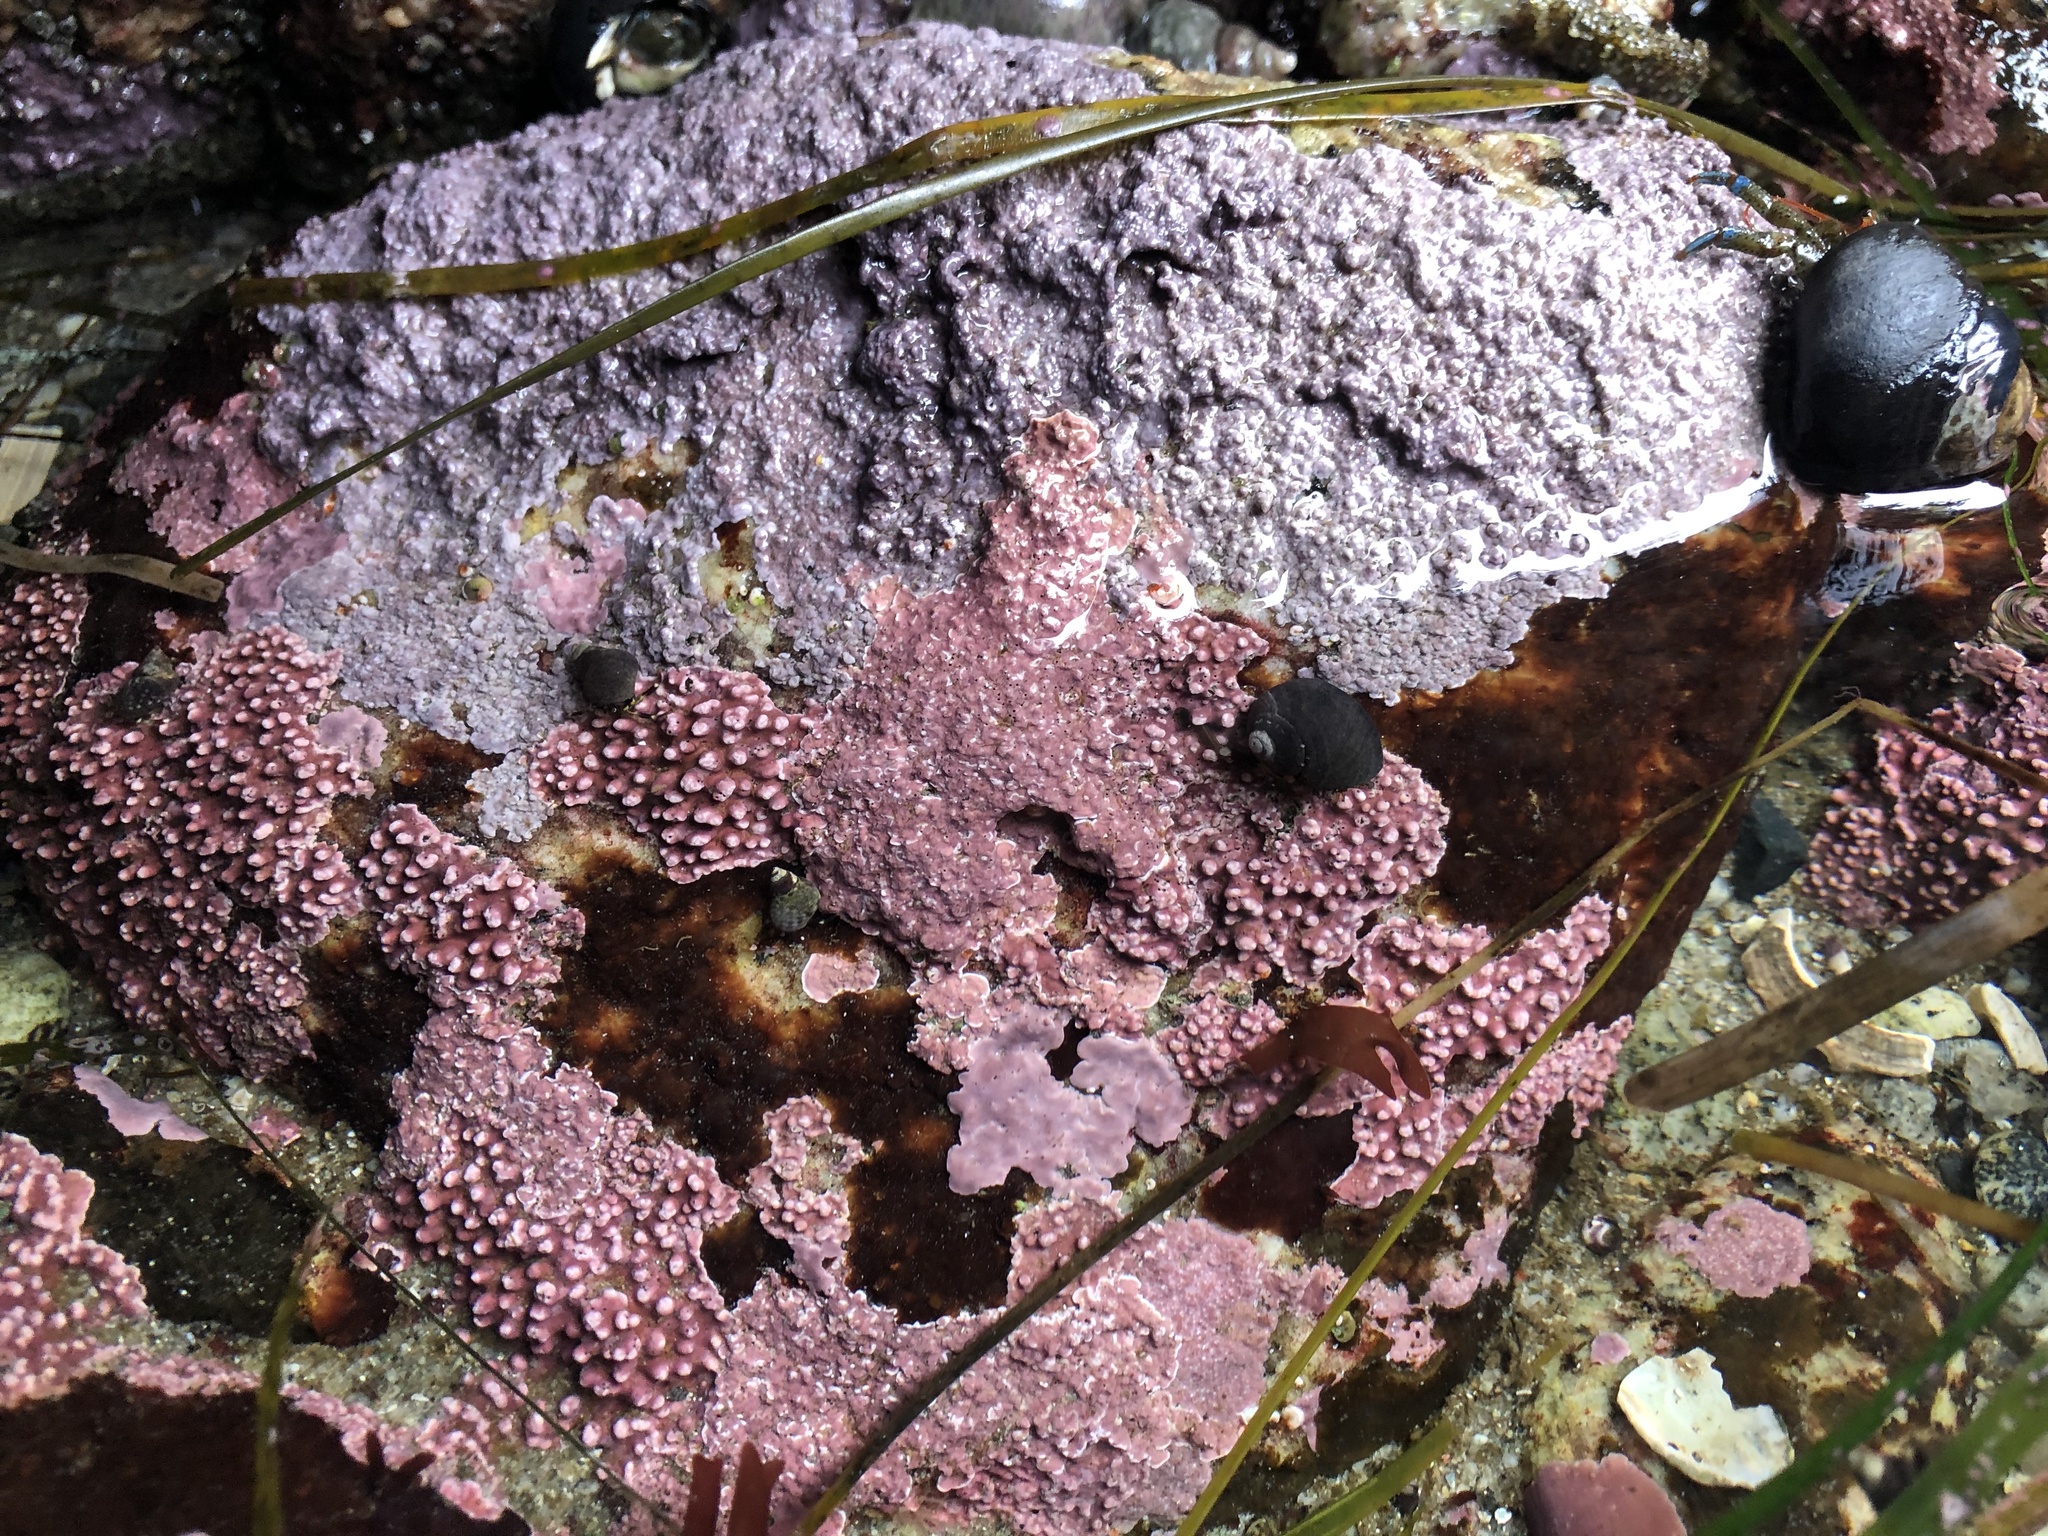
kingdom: Plantae
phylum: Rhodophyta
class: Florideophyceae
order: Corallinales
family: Corallinaceae
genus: Chamberlainium
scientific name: Chamberlainium tumidum
